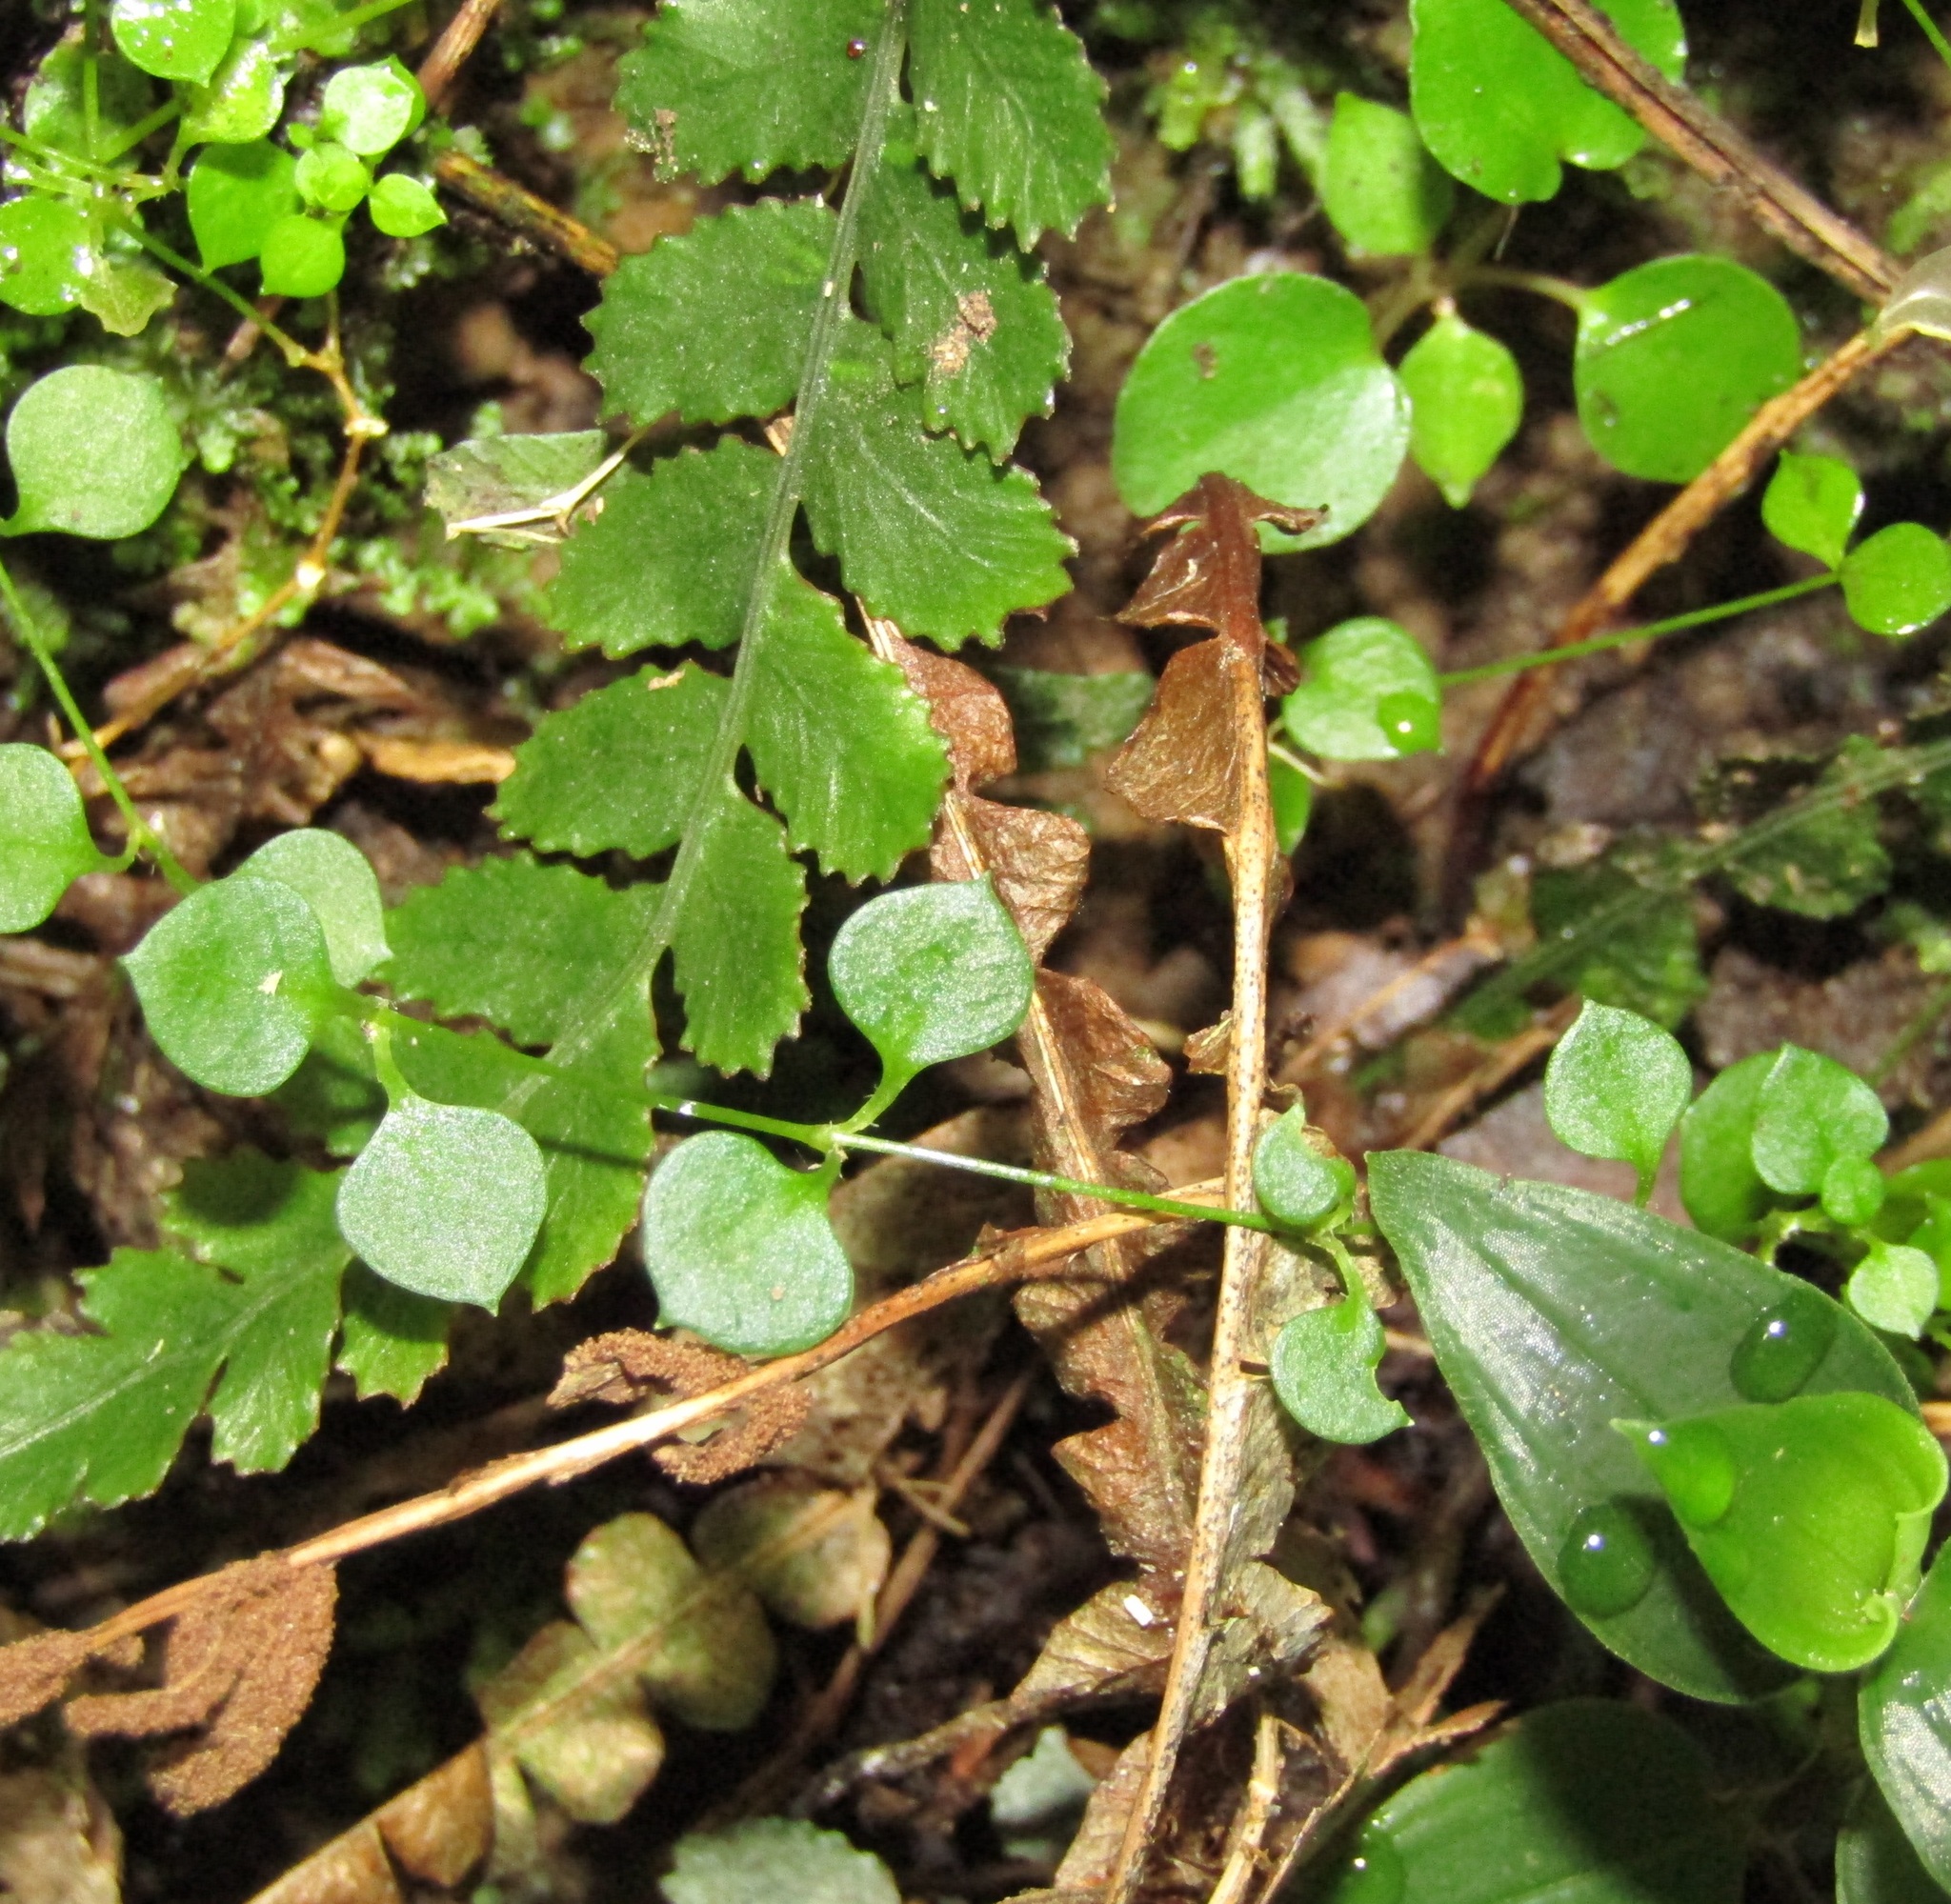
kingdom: Plantae
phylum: Tracheophyta
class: Magnoliopsida
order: Caryophyllales
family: Caryophyllaceae
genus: Stellaria
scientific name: Stellaria parviflora
